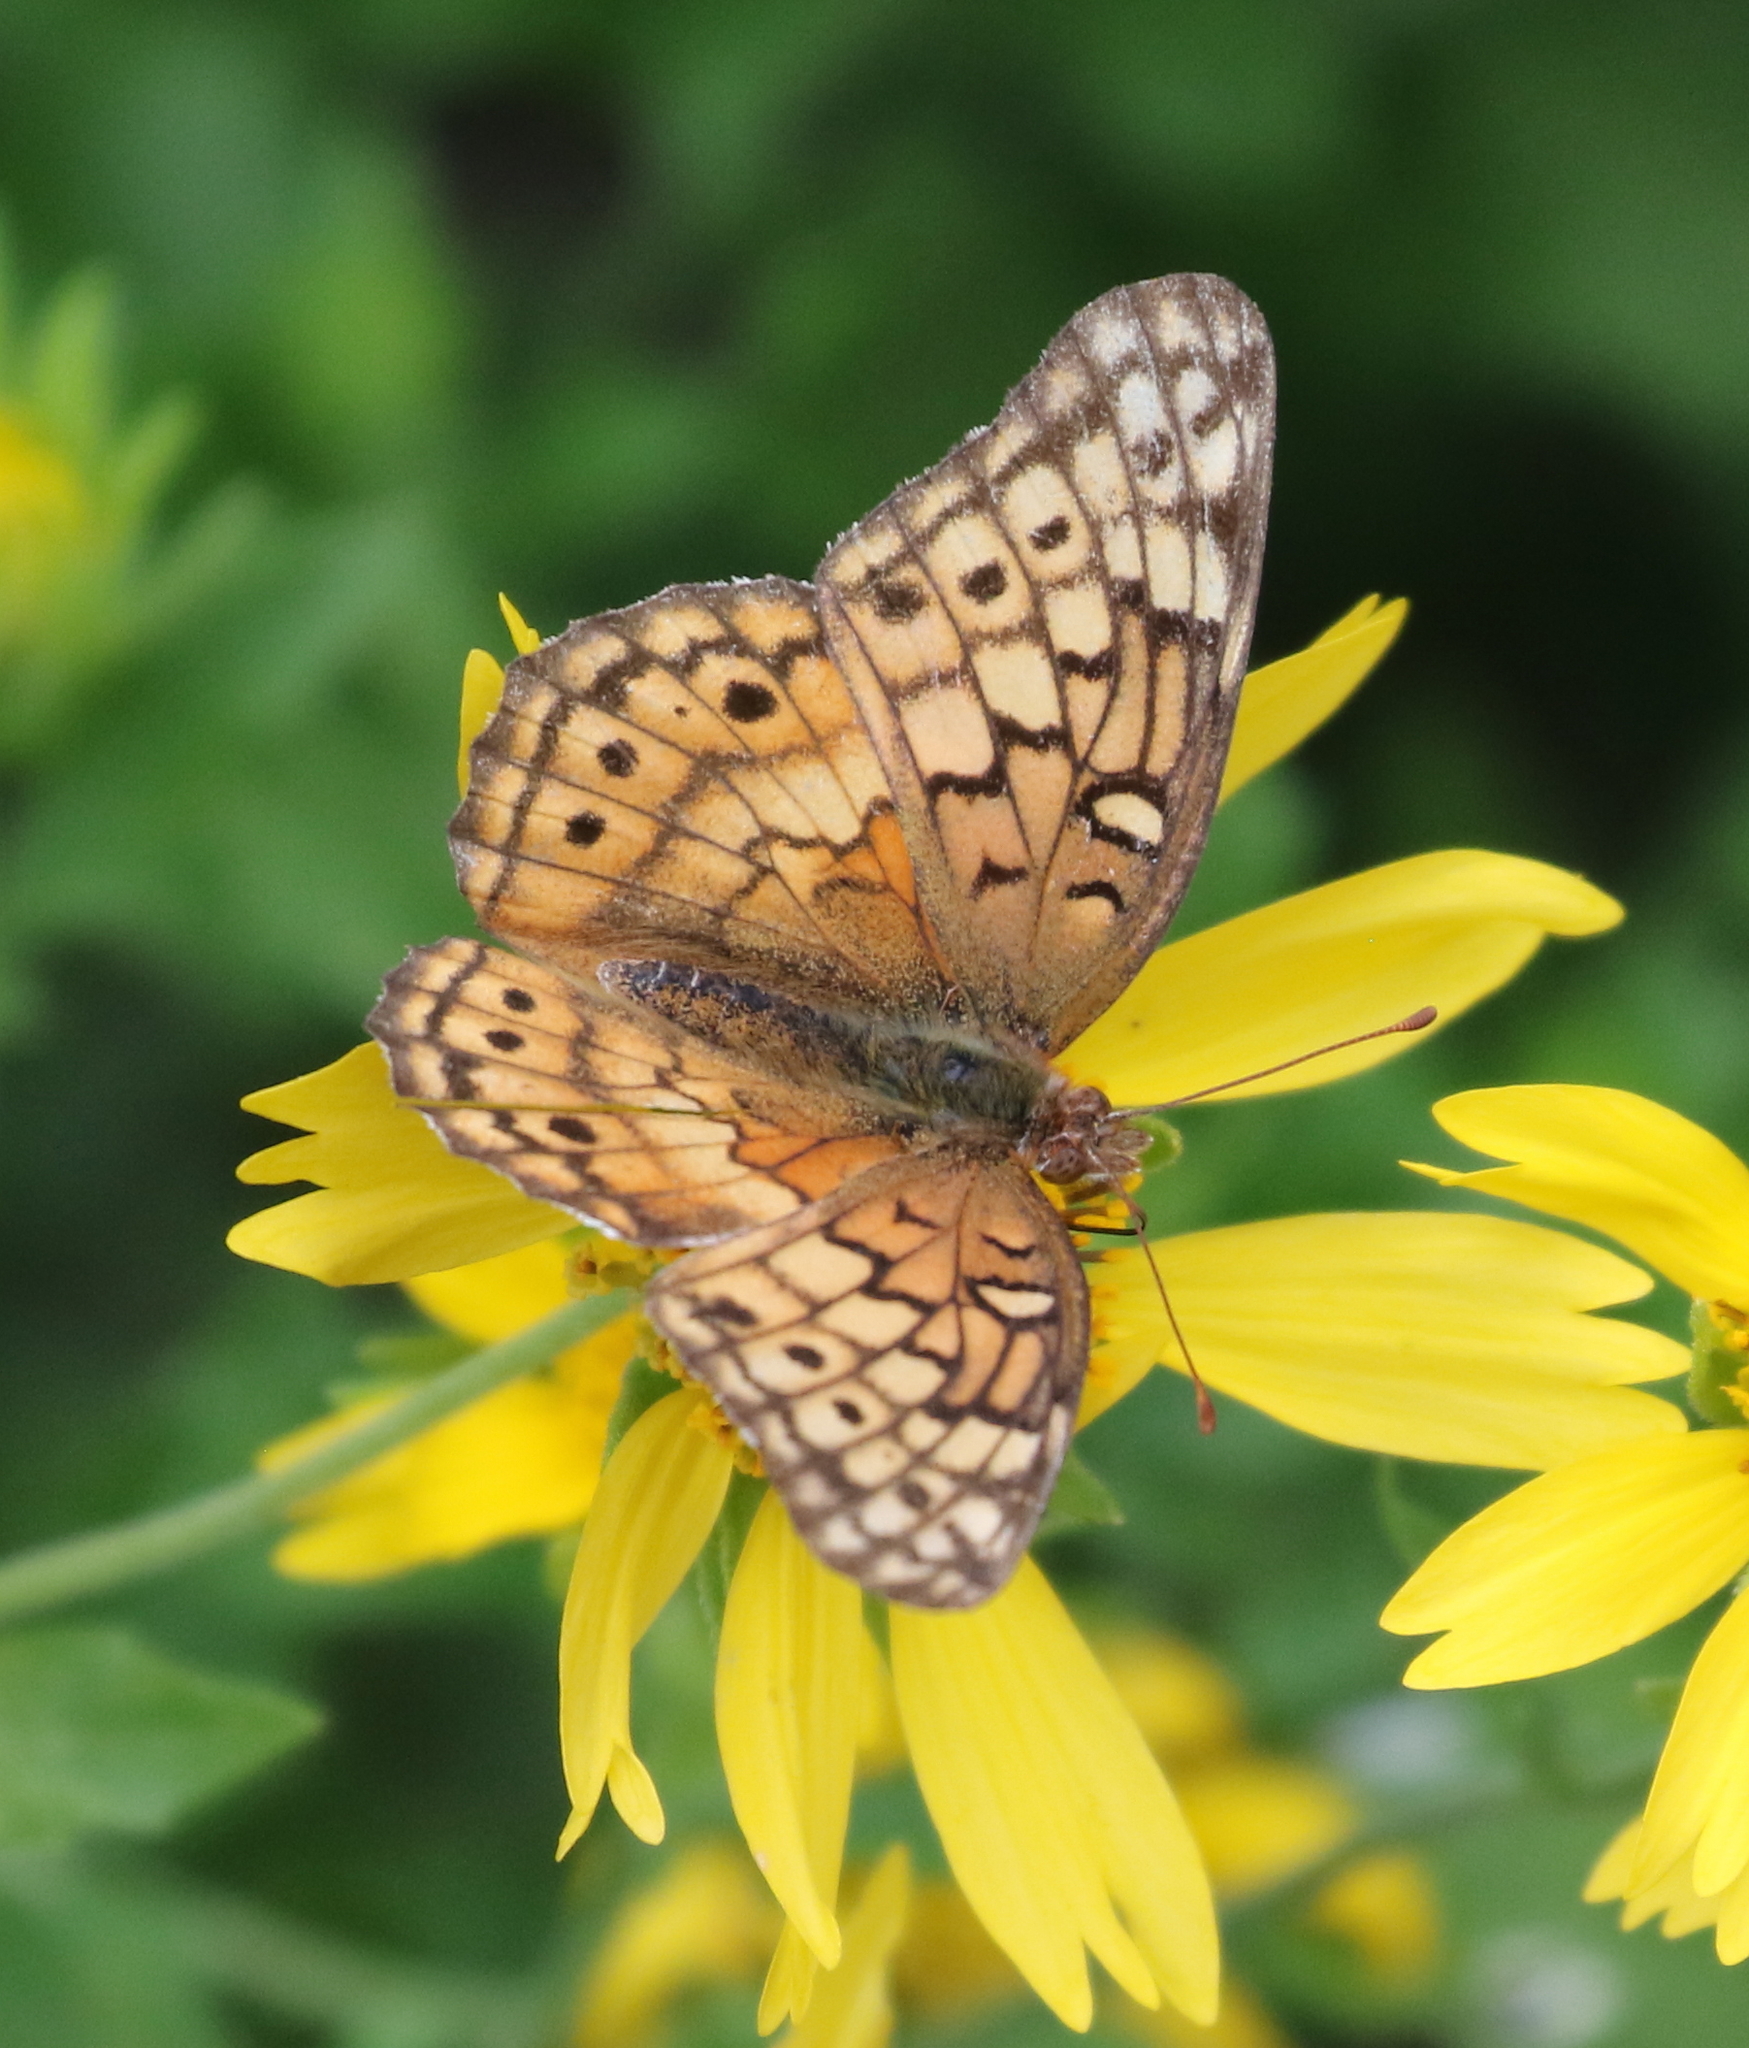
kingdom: Animalia
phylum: Arthropoda
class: Insecta
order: Lepidoptera
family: Nymphalidae
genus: Euptoieta
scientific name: Euptoieta claudia
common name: Variegated fritillary
